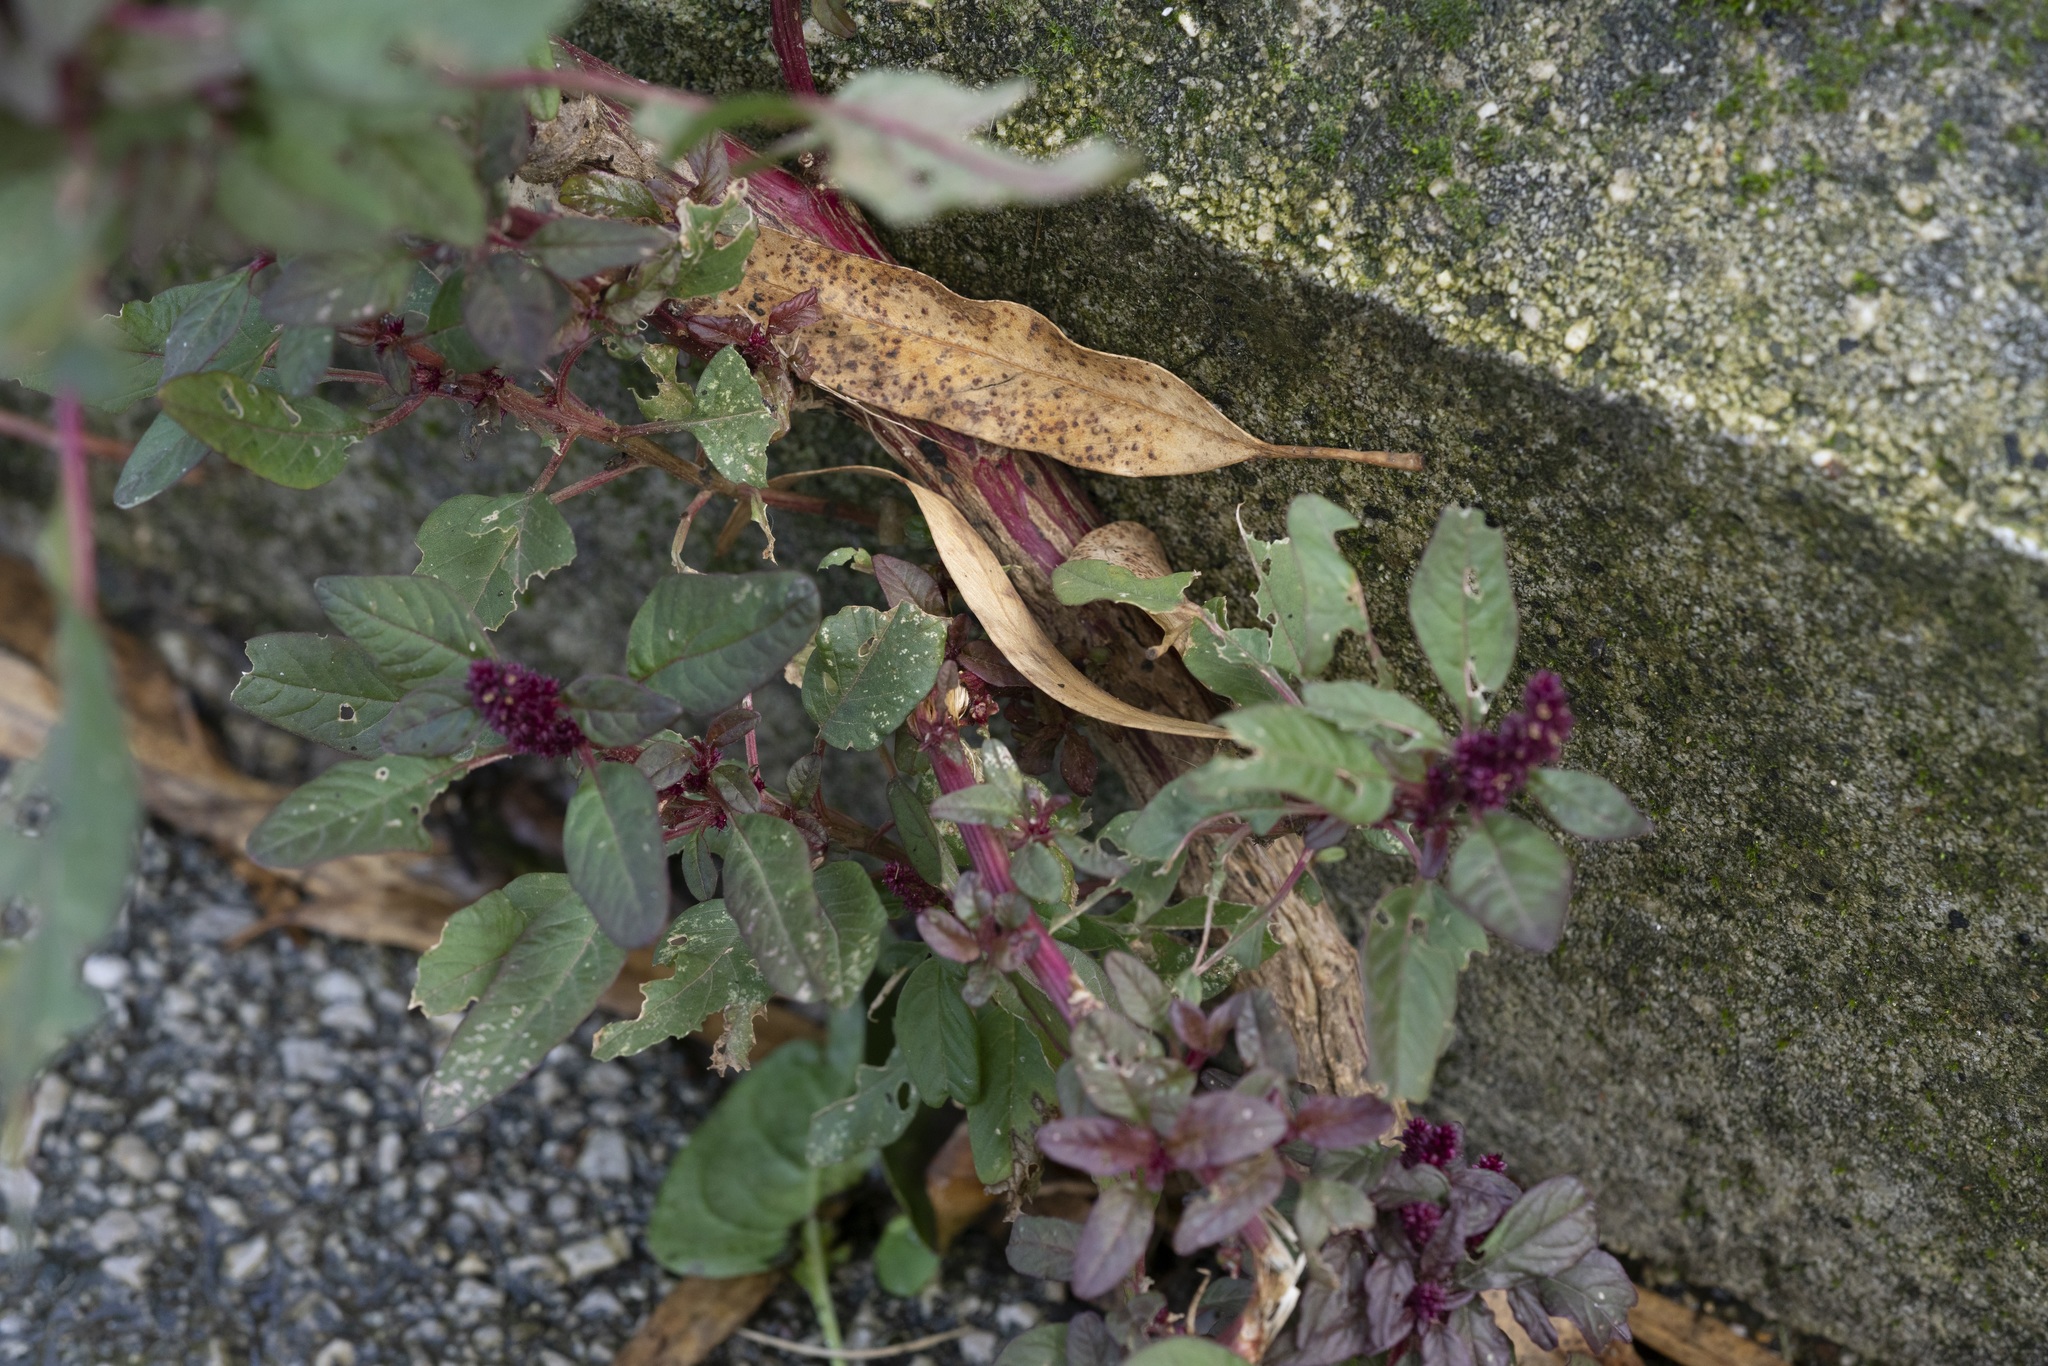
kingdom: Plantae
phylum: Tracheophyta
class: Magnoliopsida
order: Caryophyllales
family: Amaranthaceae
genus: Amaranthus
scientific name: Amaranthus cruentus
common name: Purple amaranth
